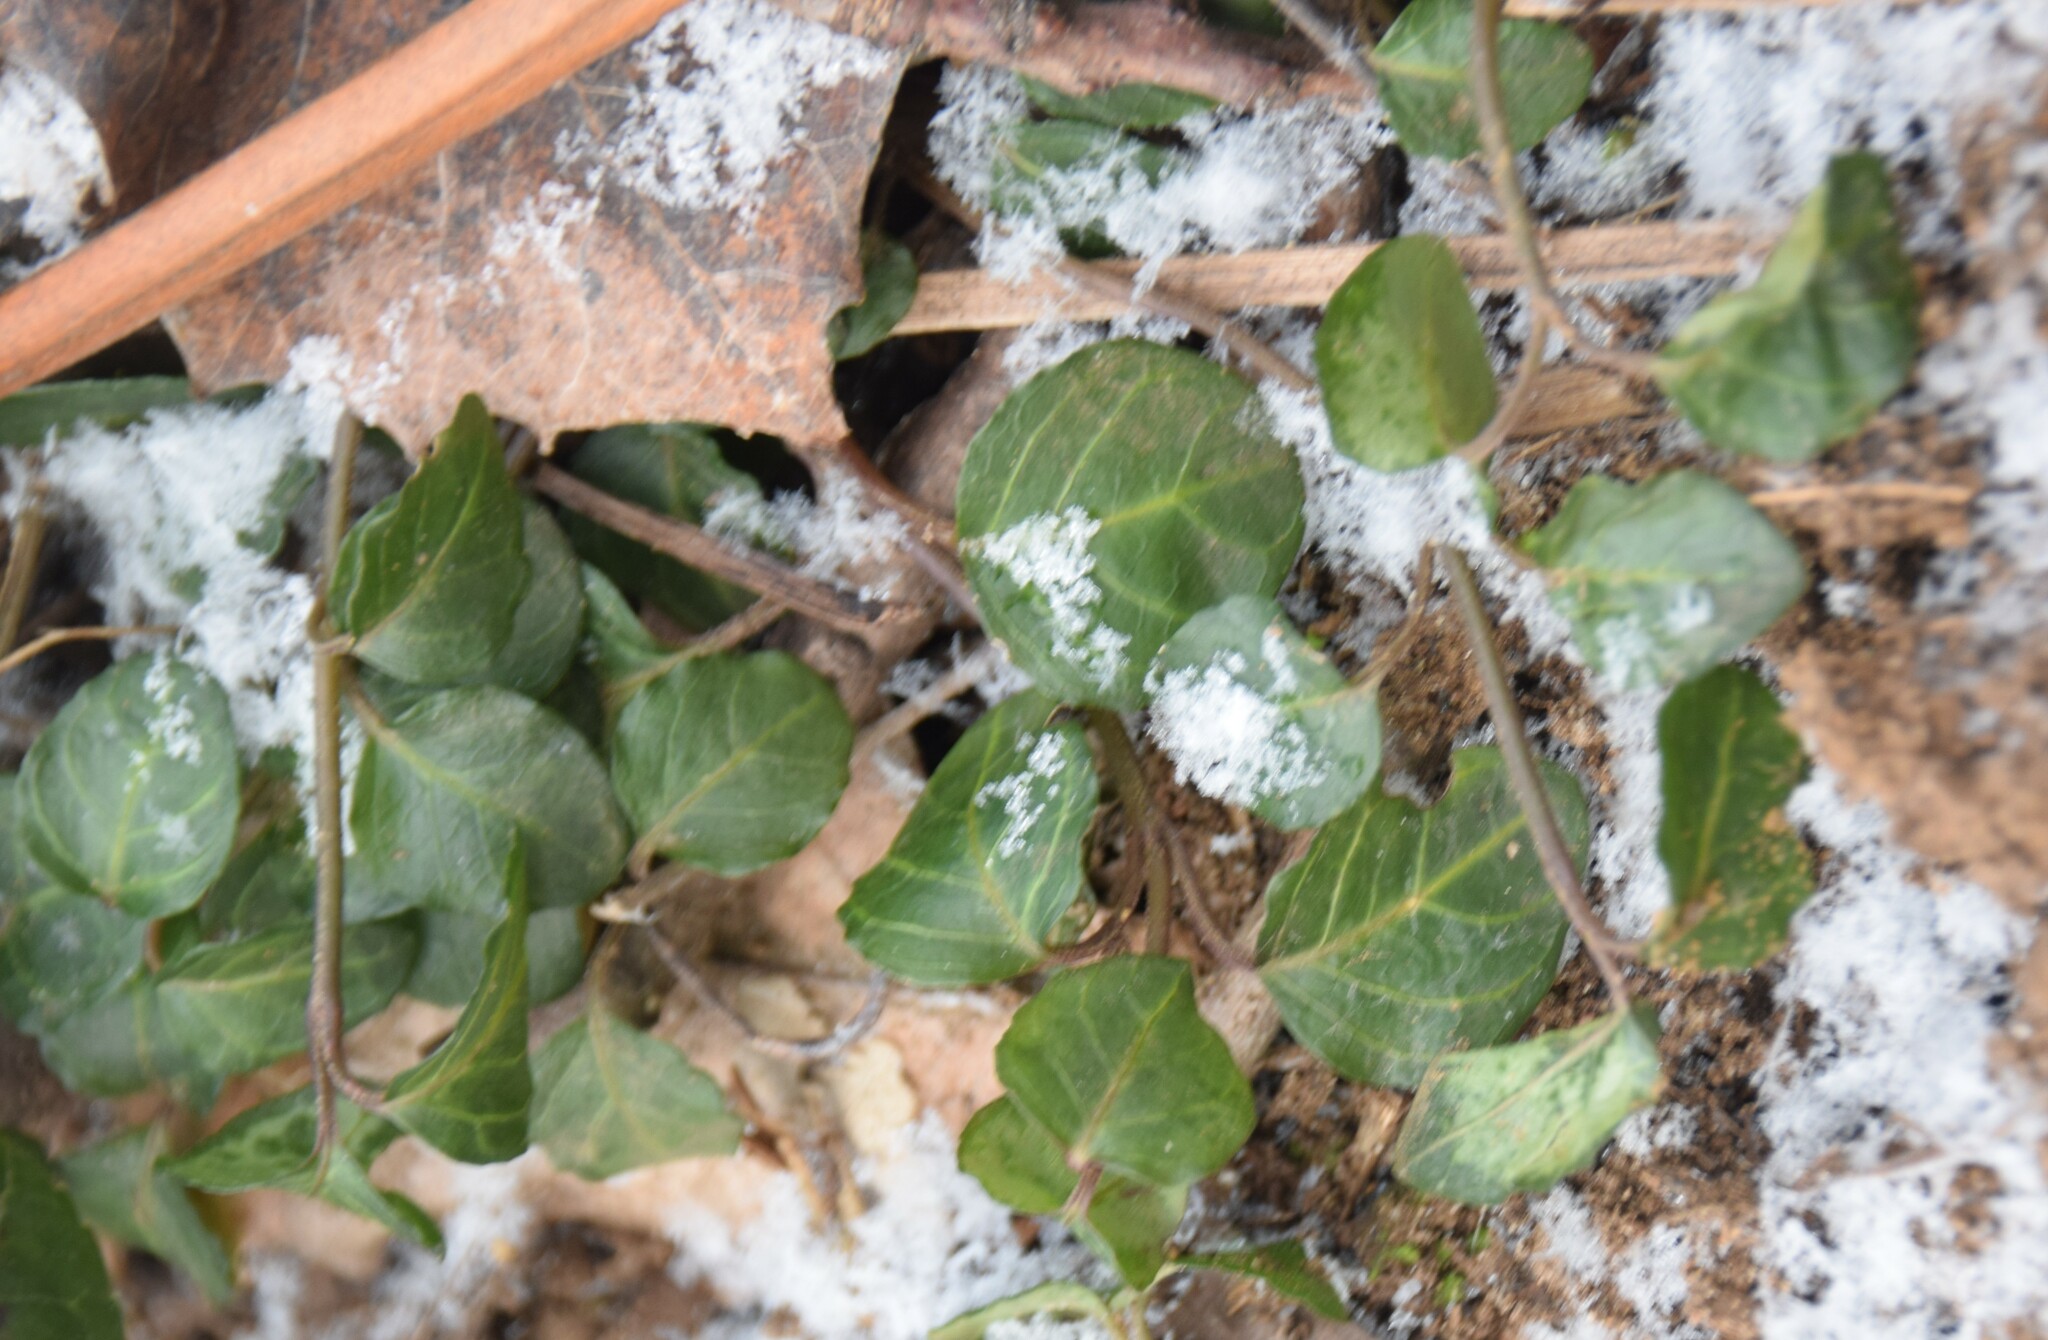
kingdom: Plantae
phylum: Tracheophyta
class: Magnoliopsida
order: Gentianales
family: Rubiaceae
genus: Mitchella
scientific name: Mitchella repens
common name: Partridge-berry
